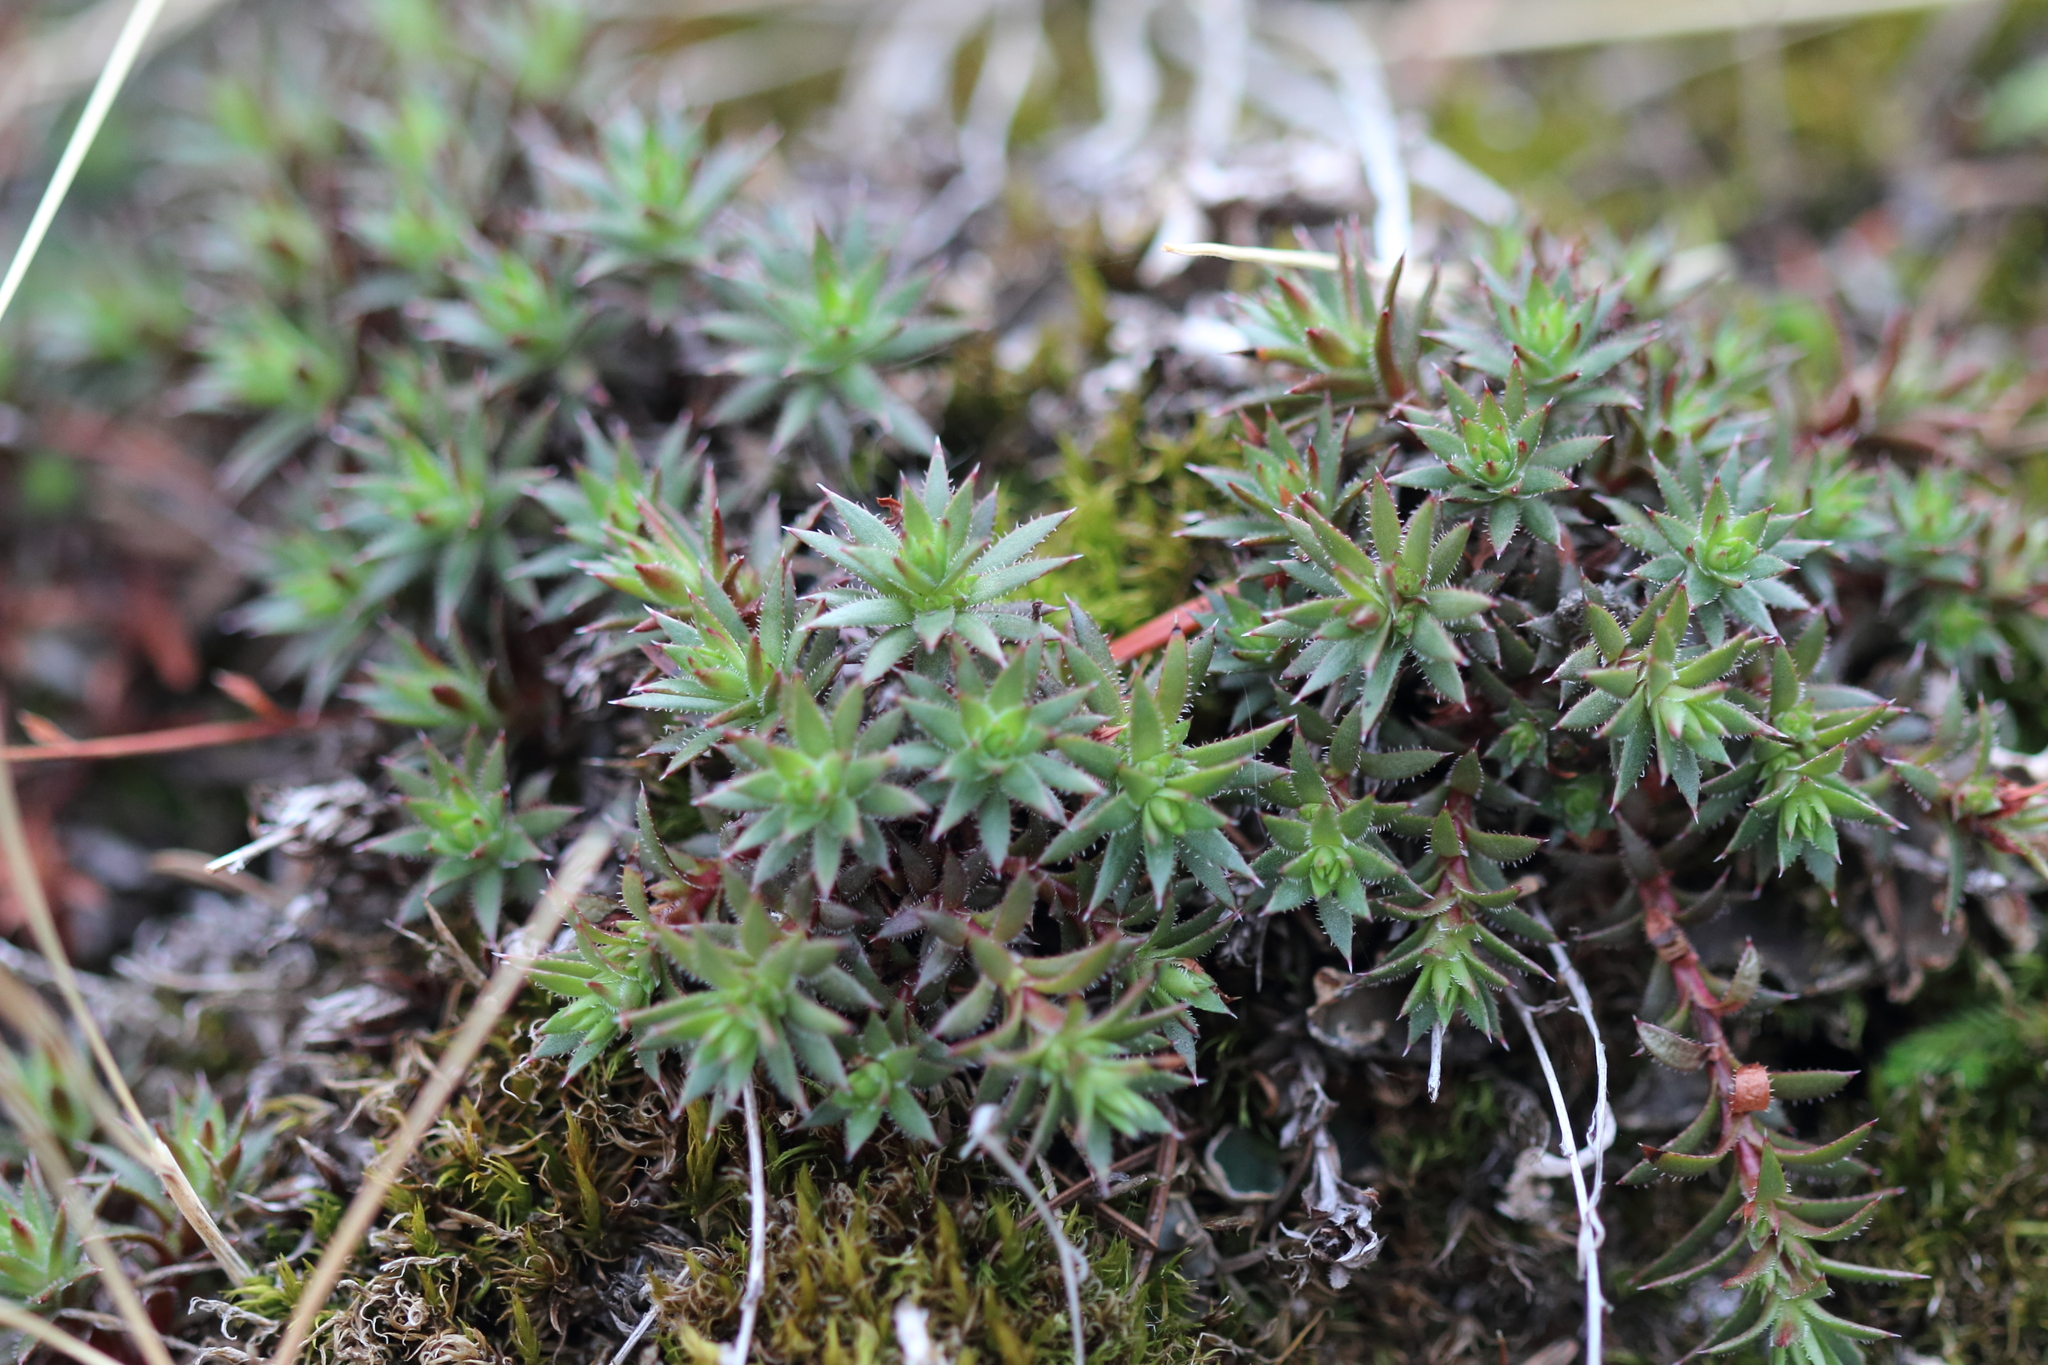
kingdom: Plantae
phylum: Tracheophyta
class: Magnoliopsida
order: Saxifragales
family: Saxifragaceae
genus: Saxifraga
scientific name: Saxifraga bronchialis
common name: Matted saxifrage
